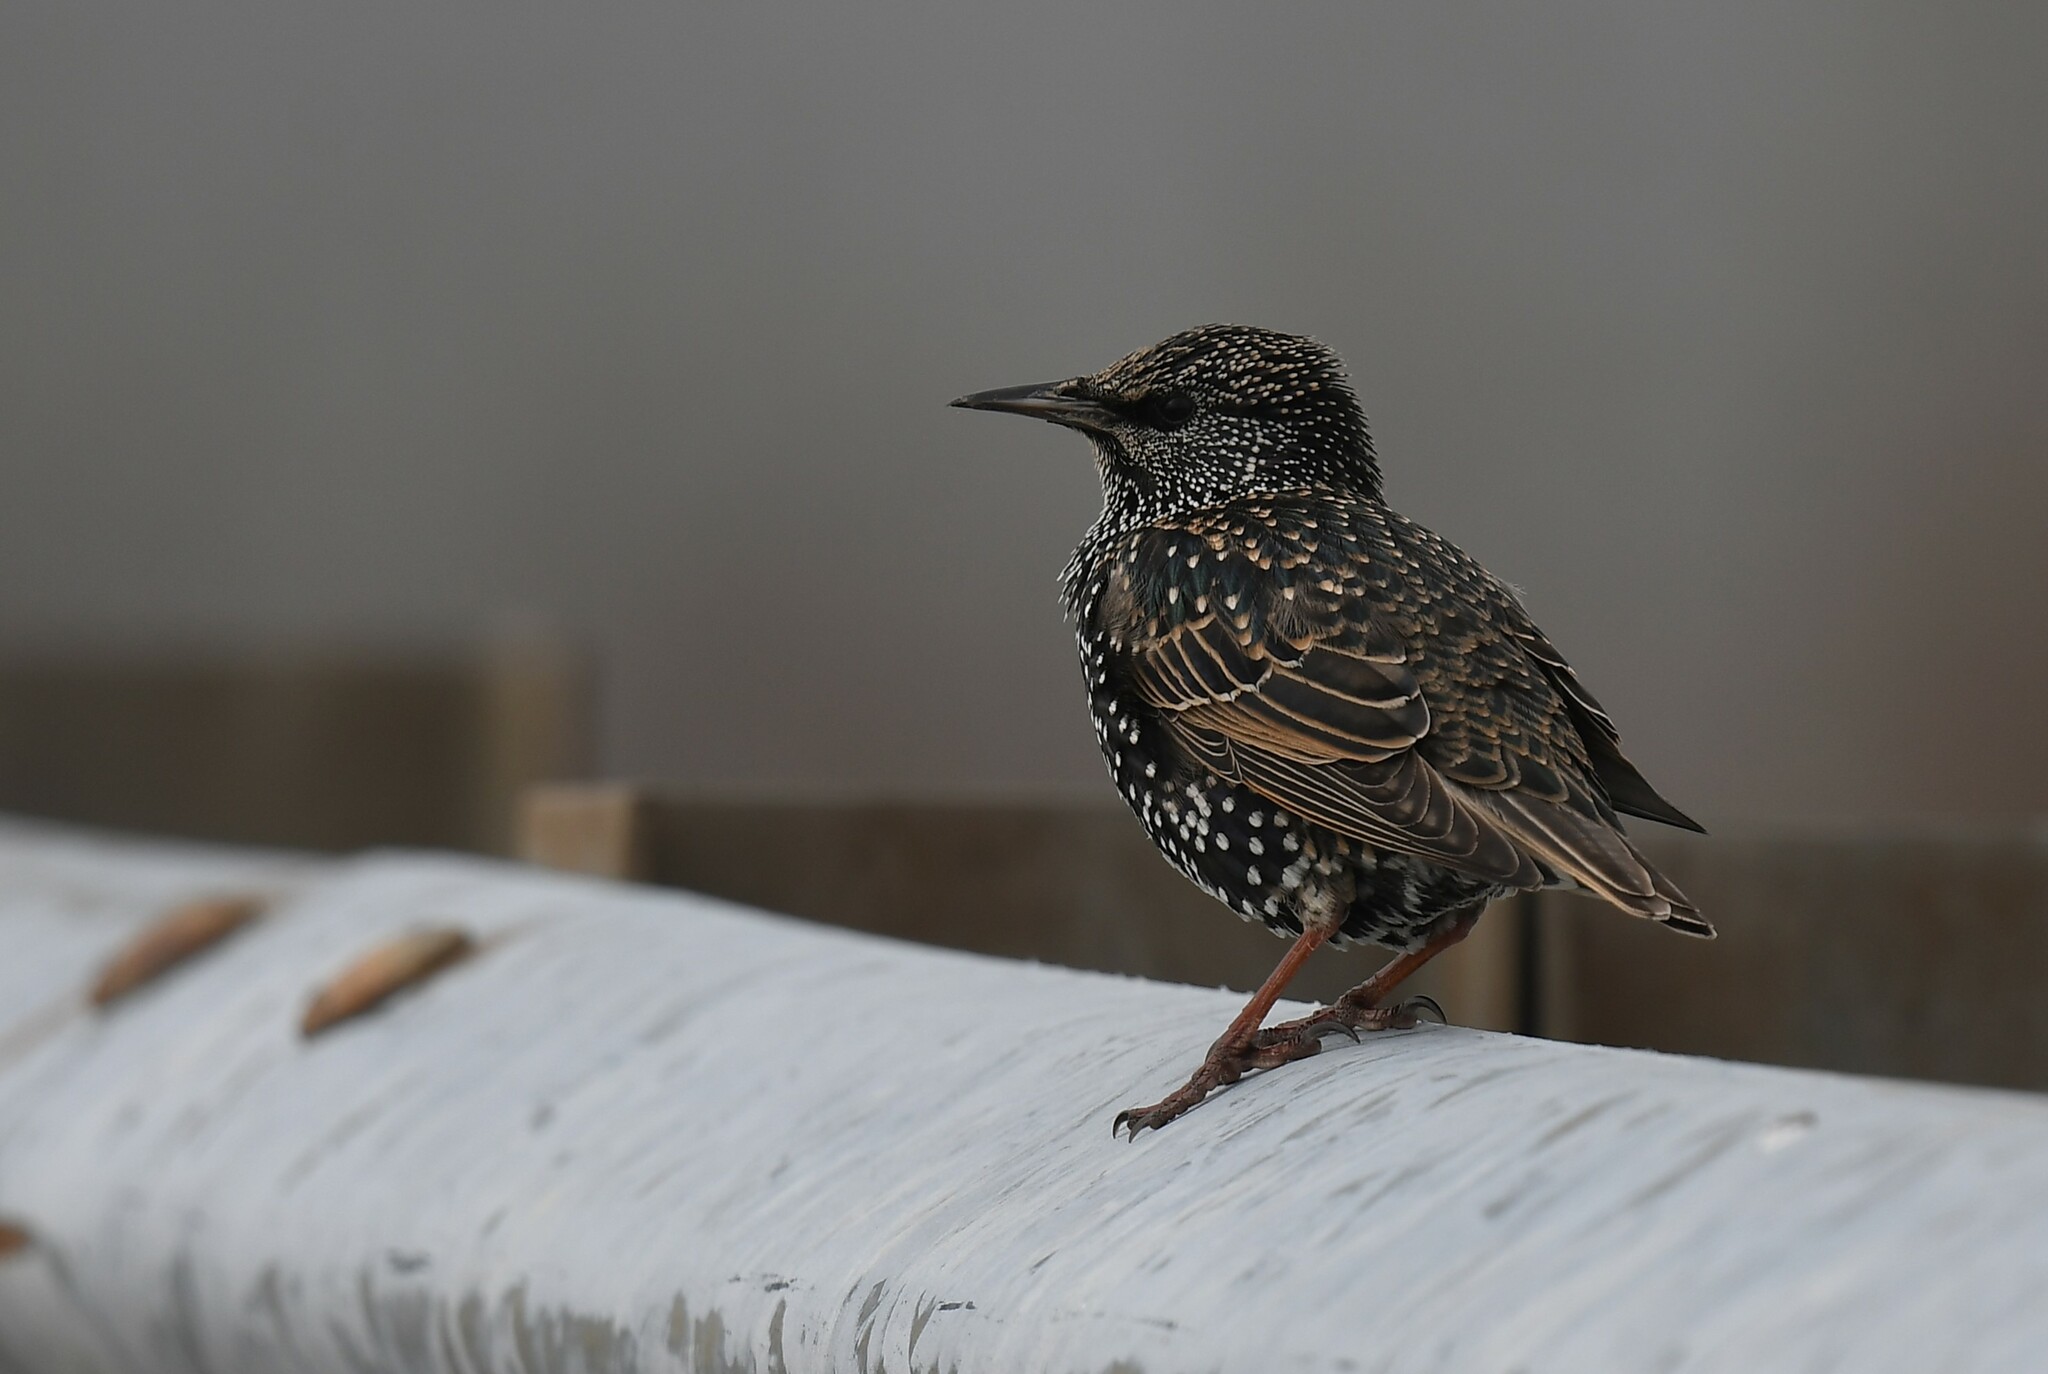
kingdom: Animalia
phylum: Chordata
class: Aves
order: Passeriformes
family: Sturnidae
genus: Sturnus
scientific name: Sturnus vulgaris
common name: Common starling
